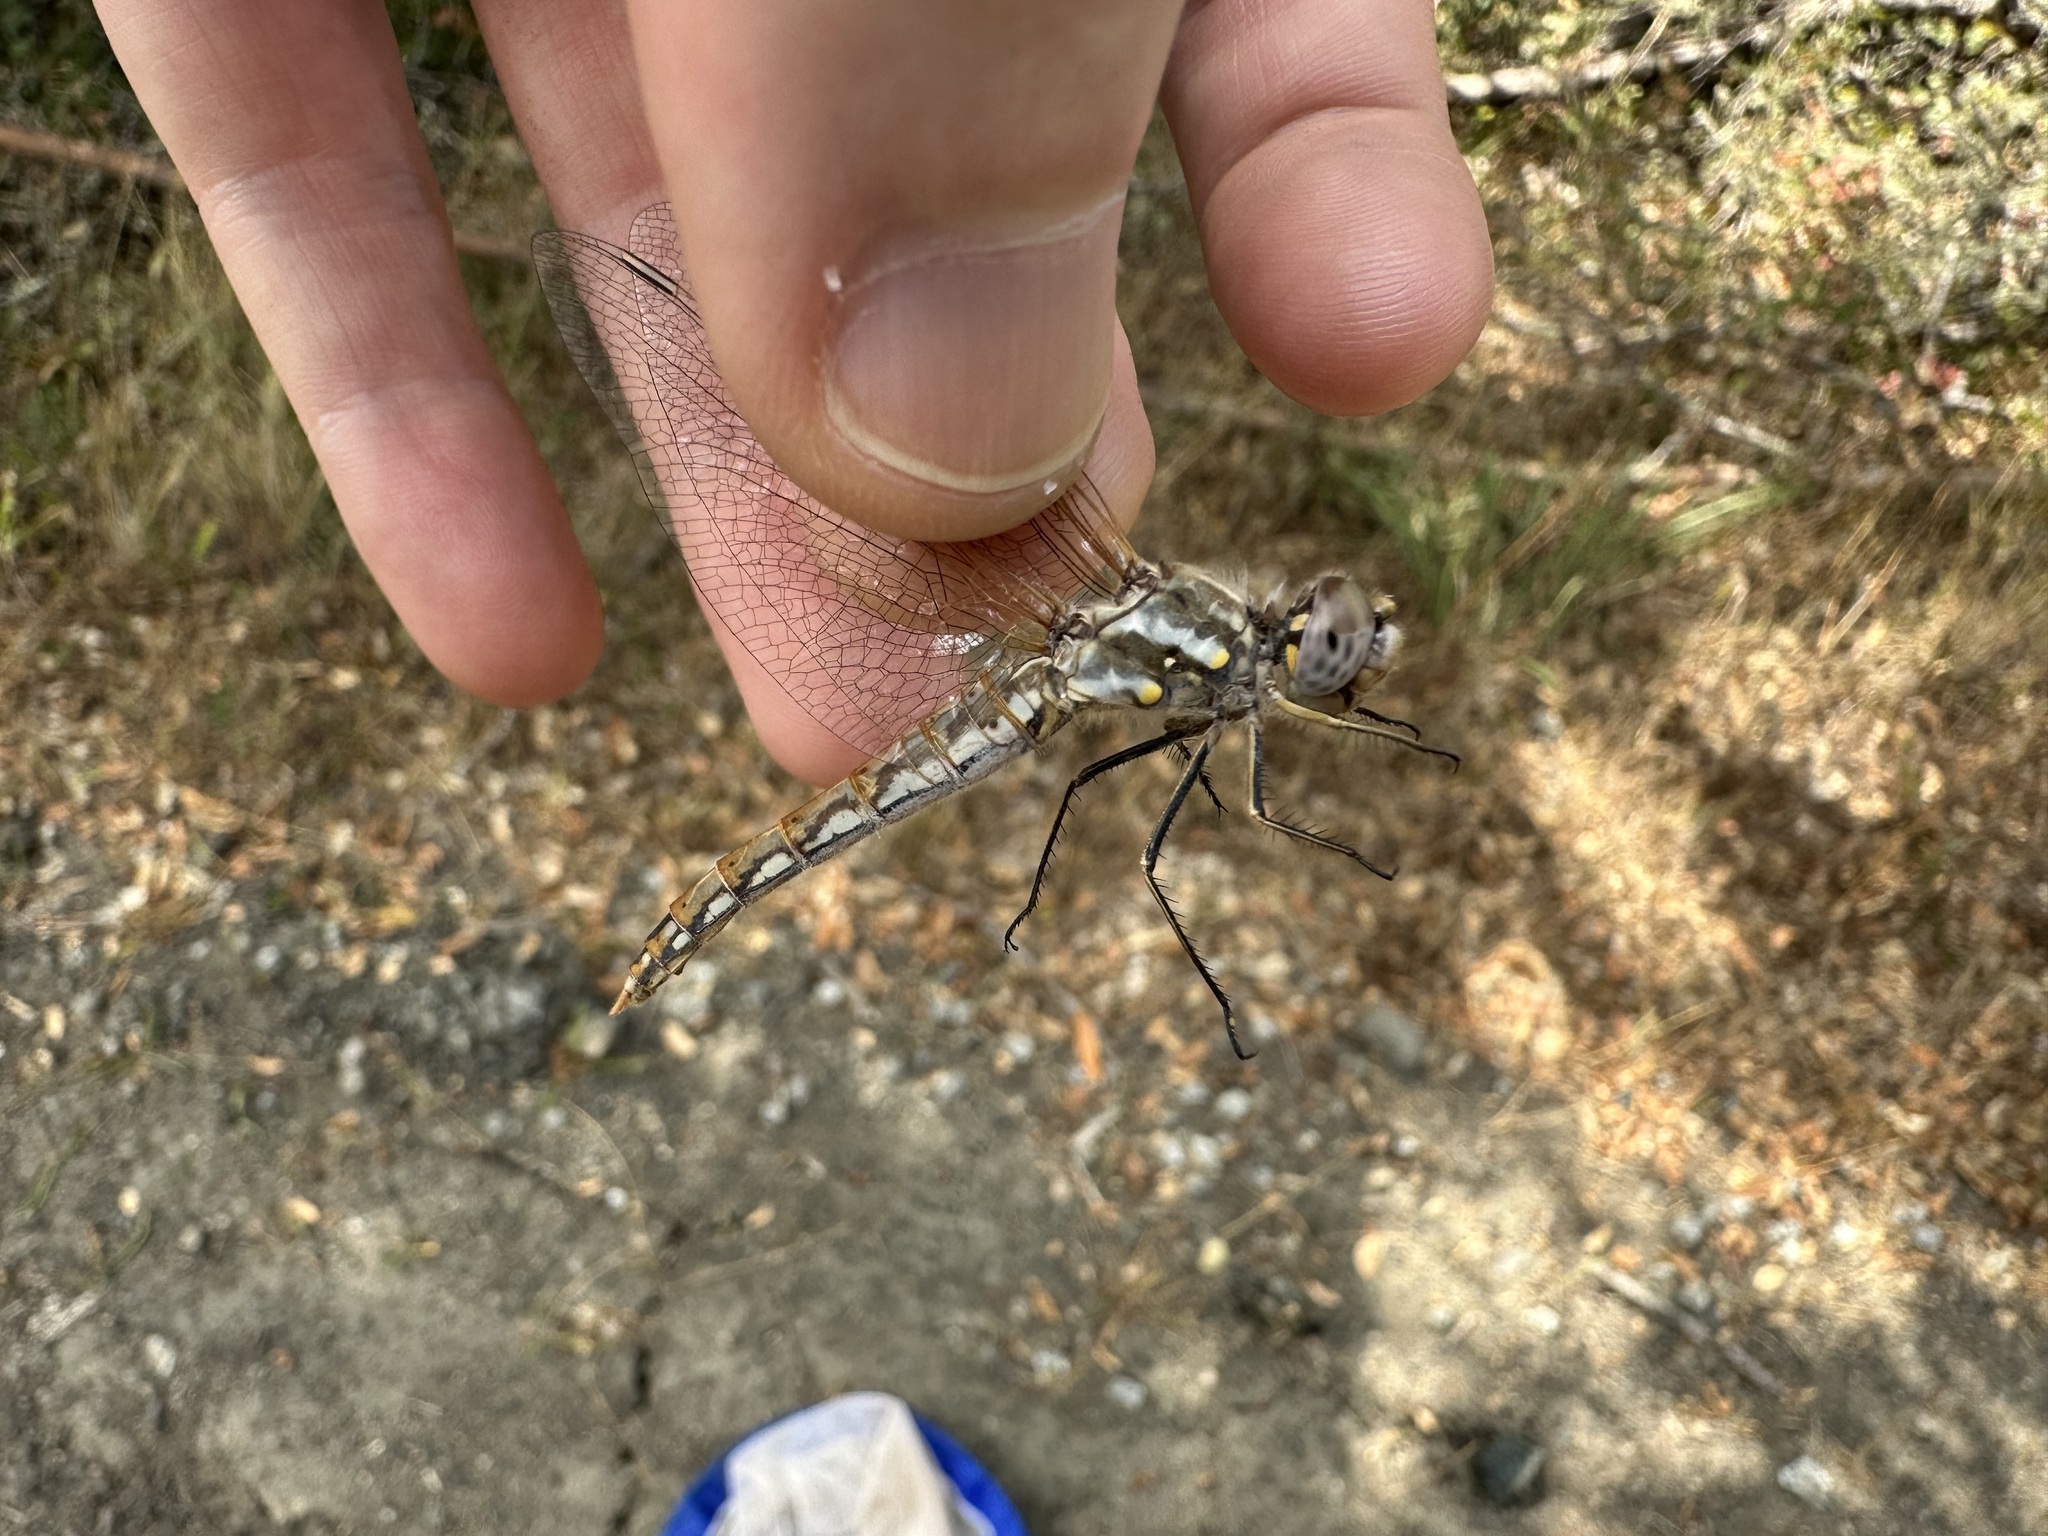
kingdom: Animalia
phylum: Arthropoda
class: Insecta
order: Odonata
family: Libellulidae
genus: Sympetrum
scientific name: Sympetrum corruptum
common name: Variegated meadowhawk
